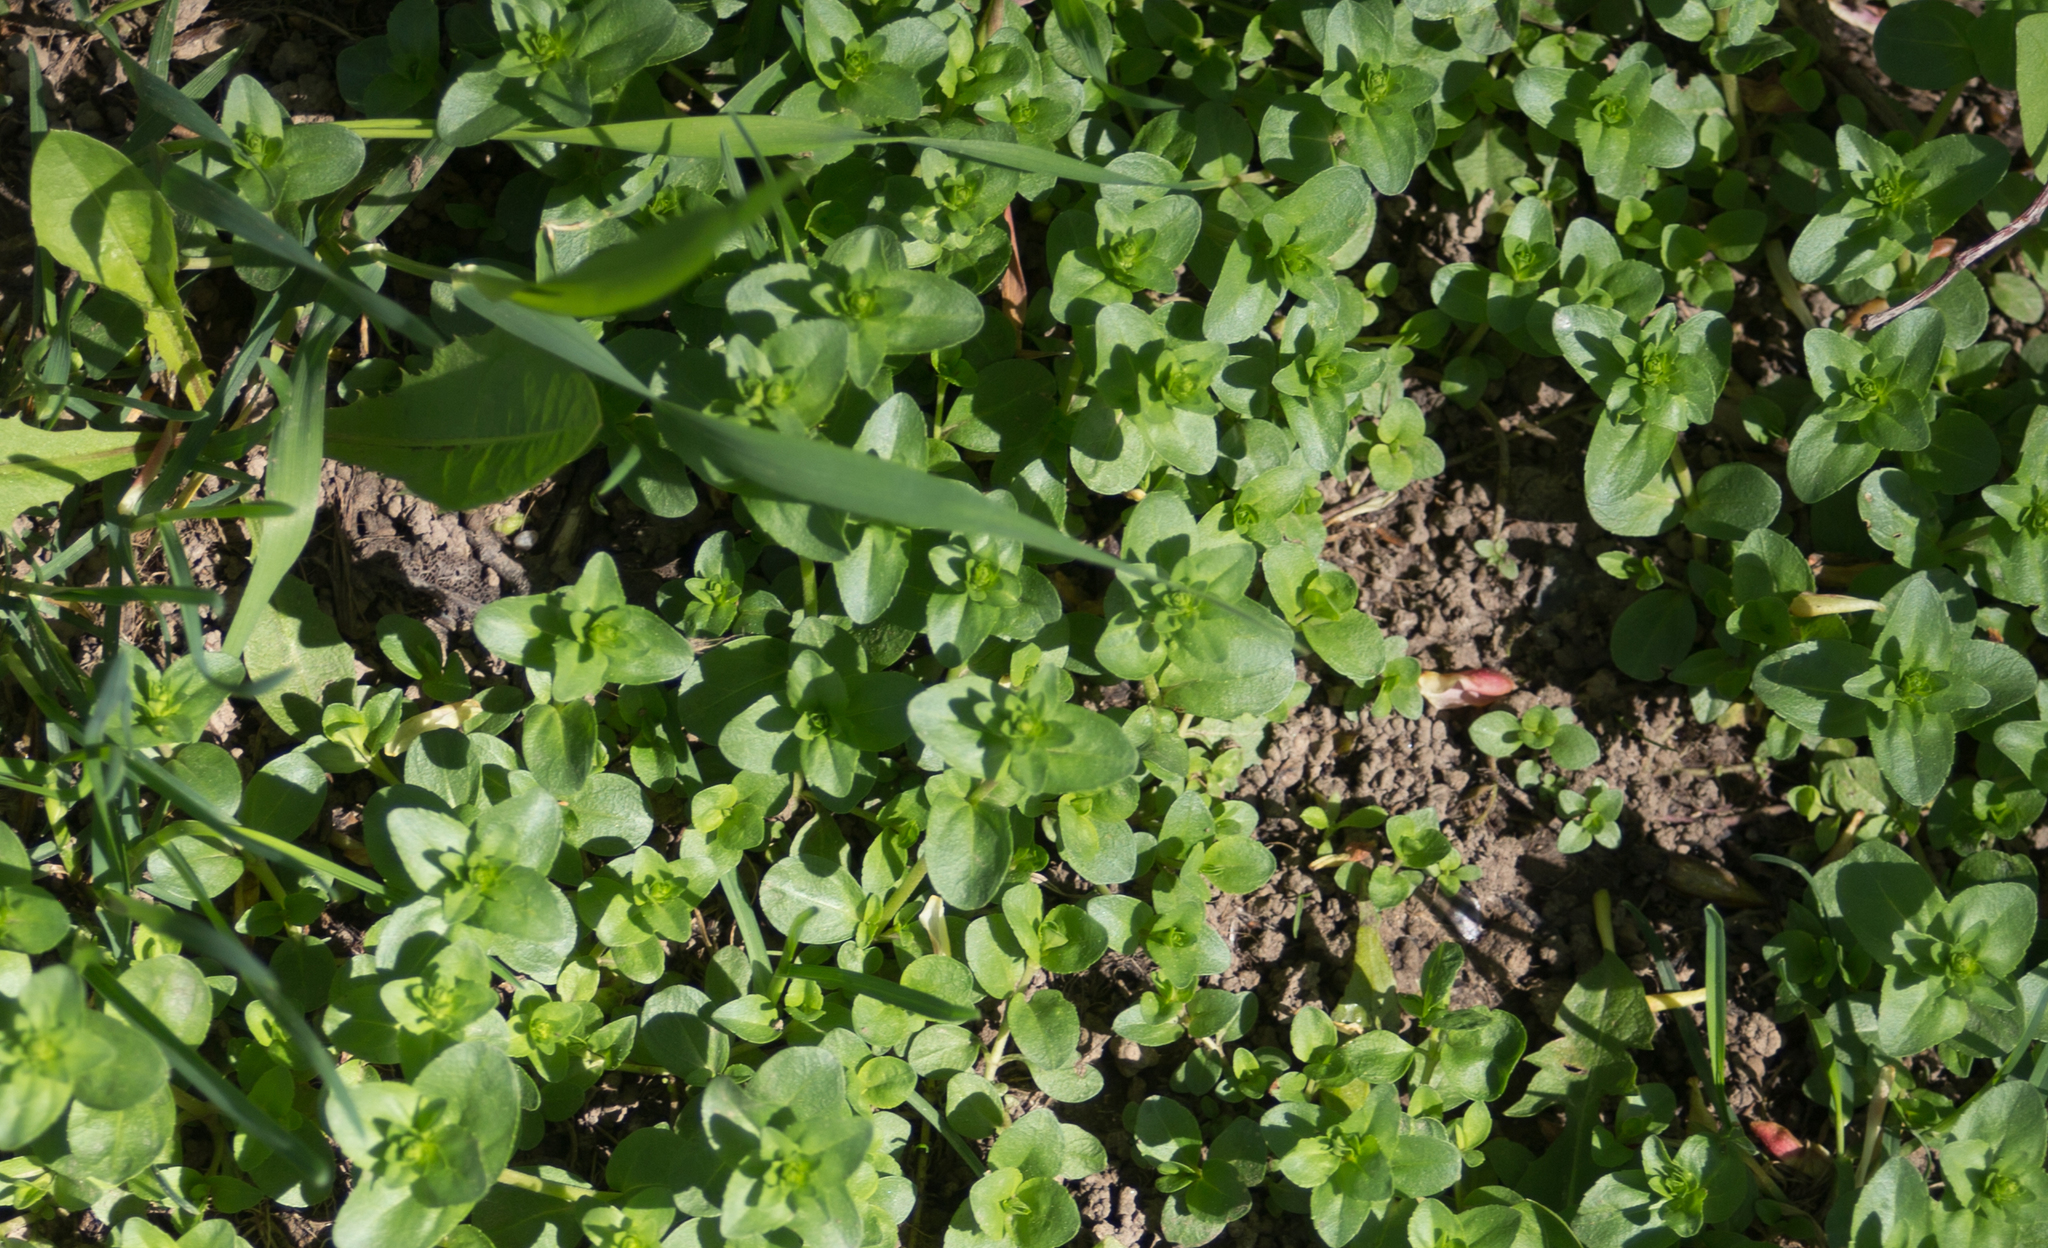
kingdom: Plantae
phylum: Tracheophyta
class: Magnoliopsida
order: Lamiales
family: Plantaginaceae
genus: Veronica
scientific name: Veronica serpyllifolia
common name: Thyme-leaved speedwell
